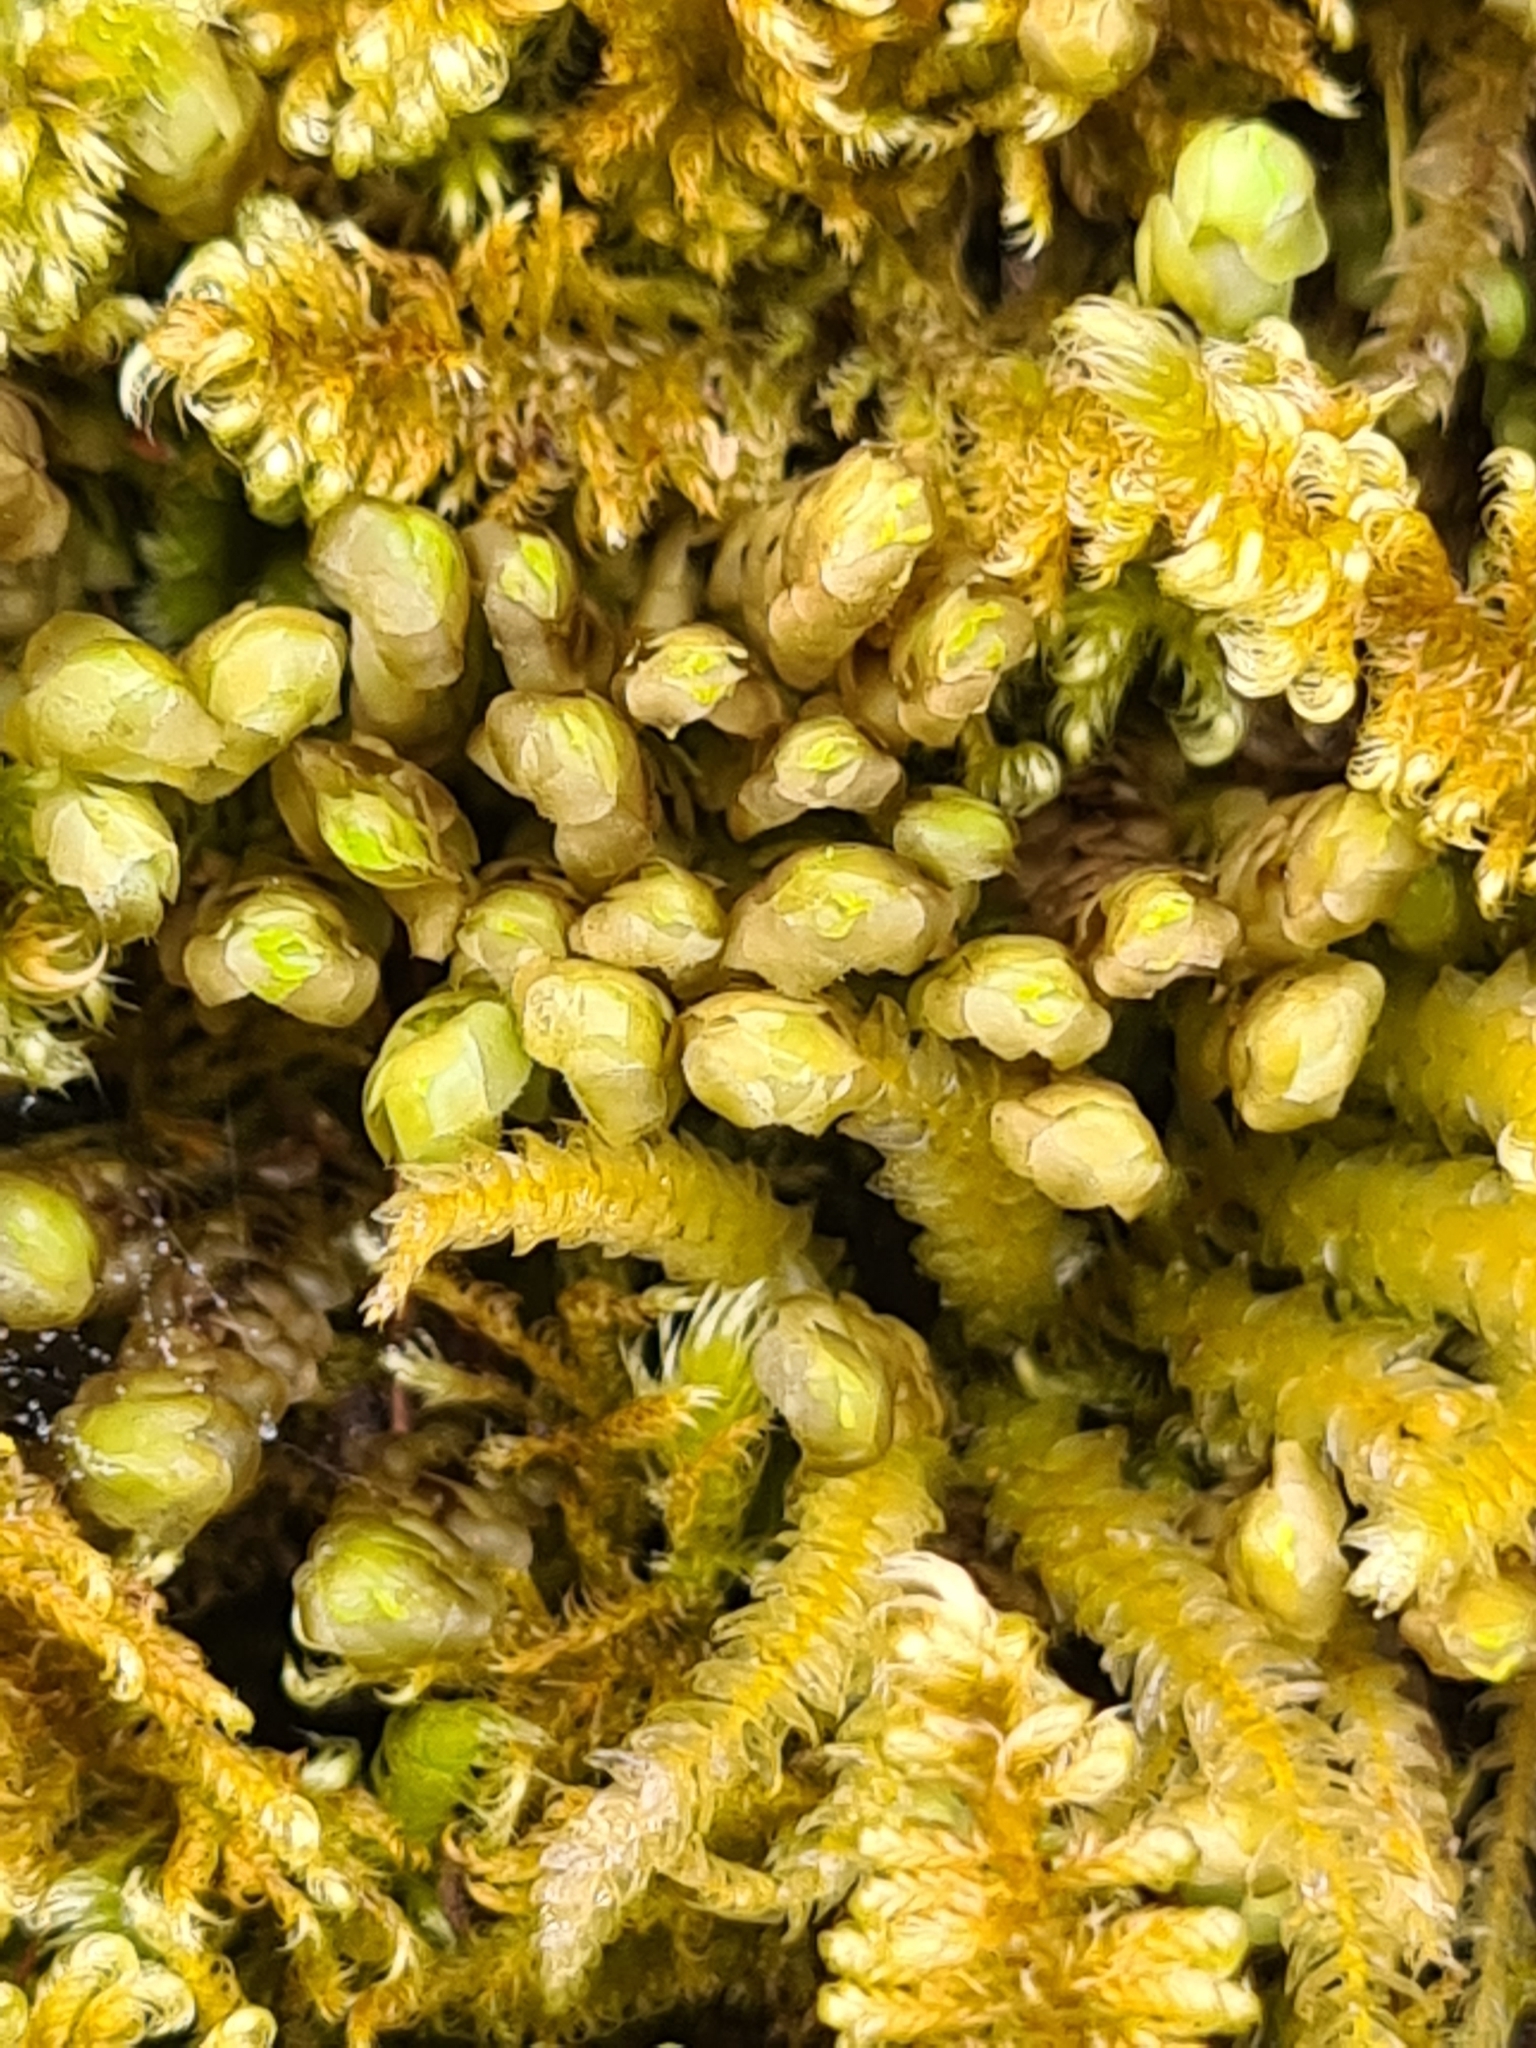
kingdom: Plantae
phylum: Marchantiophyta
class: Jungermanniopsida
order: Jungermanniales
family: Scapaniaceae
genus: Scapania
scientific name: Scapania aspera
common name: Rough earwort
